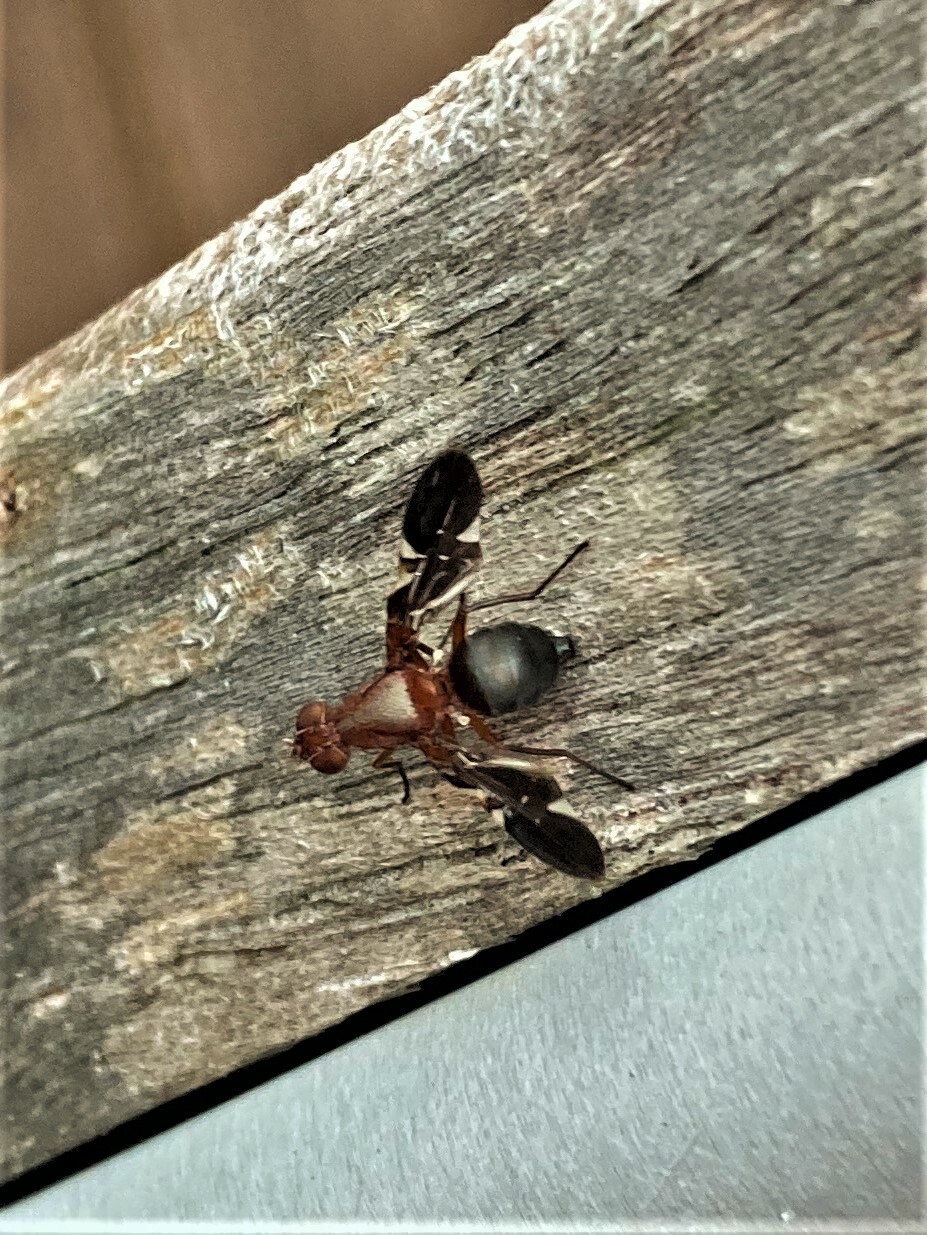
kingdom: Animalia
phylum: Arthropoda
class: Insecta
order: Diptera
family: Ulidiidae
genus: Delphinia
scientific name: Delphinia picta
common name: Common picture-winged fly
